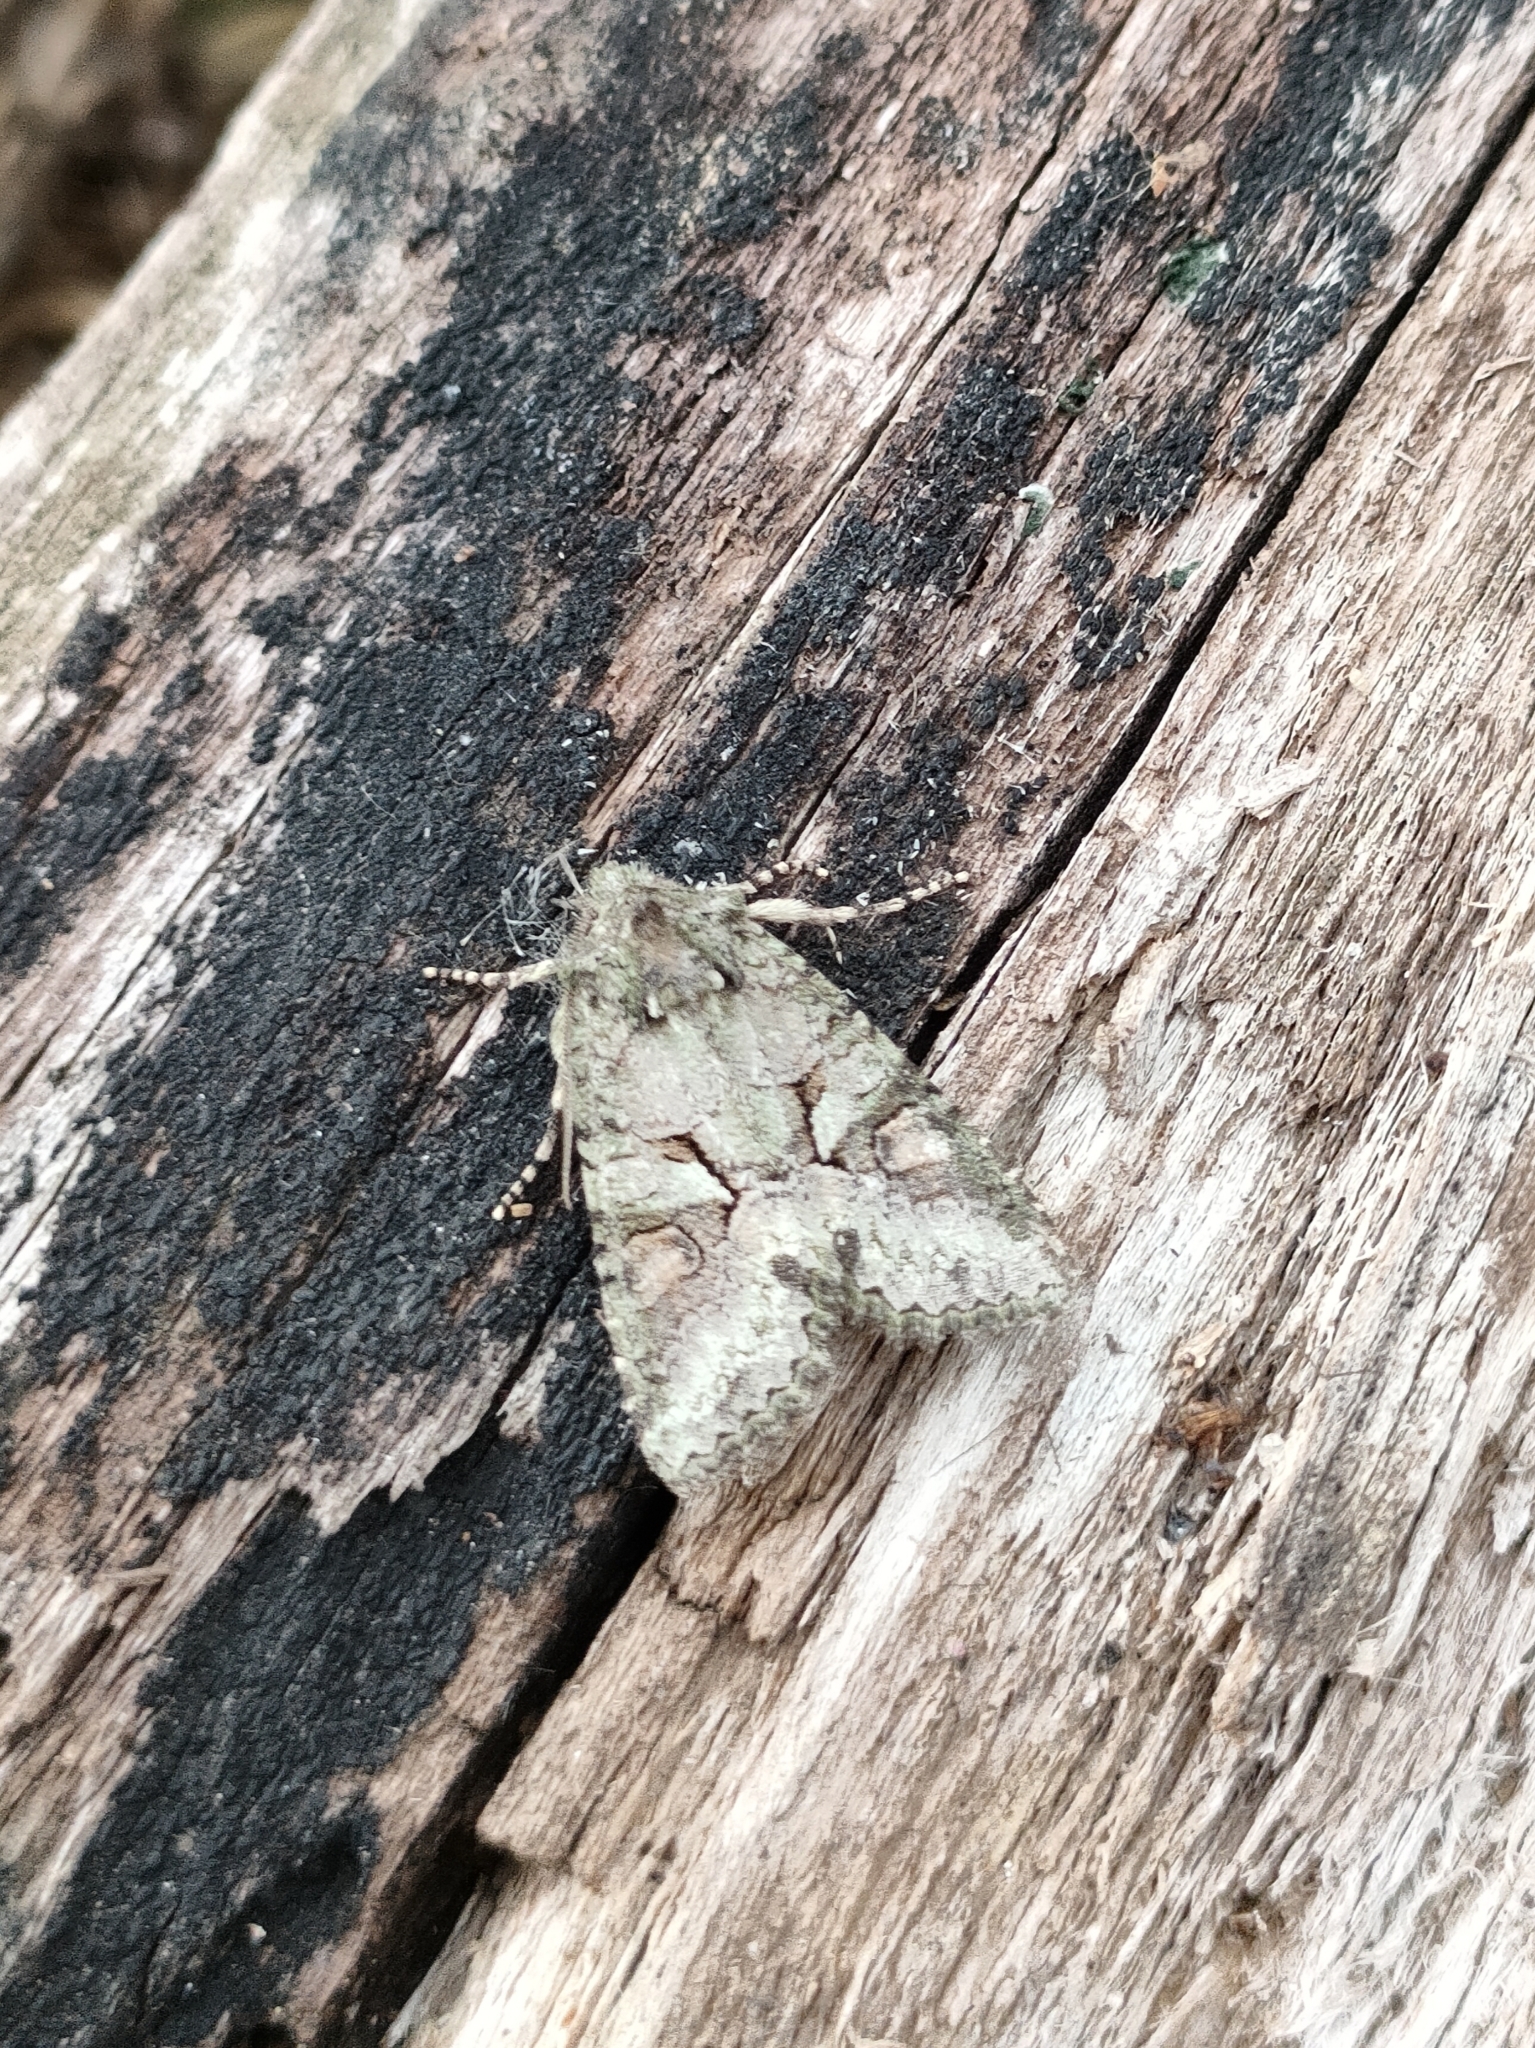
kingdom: Animalia
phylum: Arthropoda
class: Insecta
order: Lepidoptera
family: Noctuidae
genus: Dryobotodes
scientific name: Dryobotodes roboris
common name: Southern brindled green
